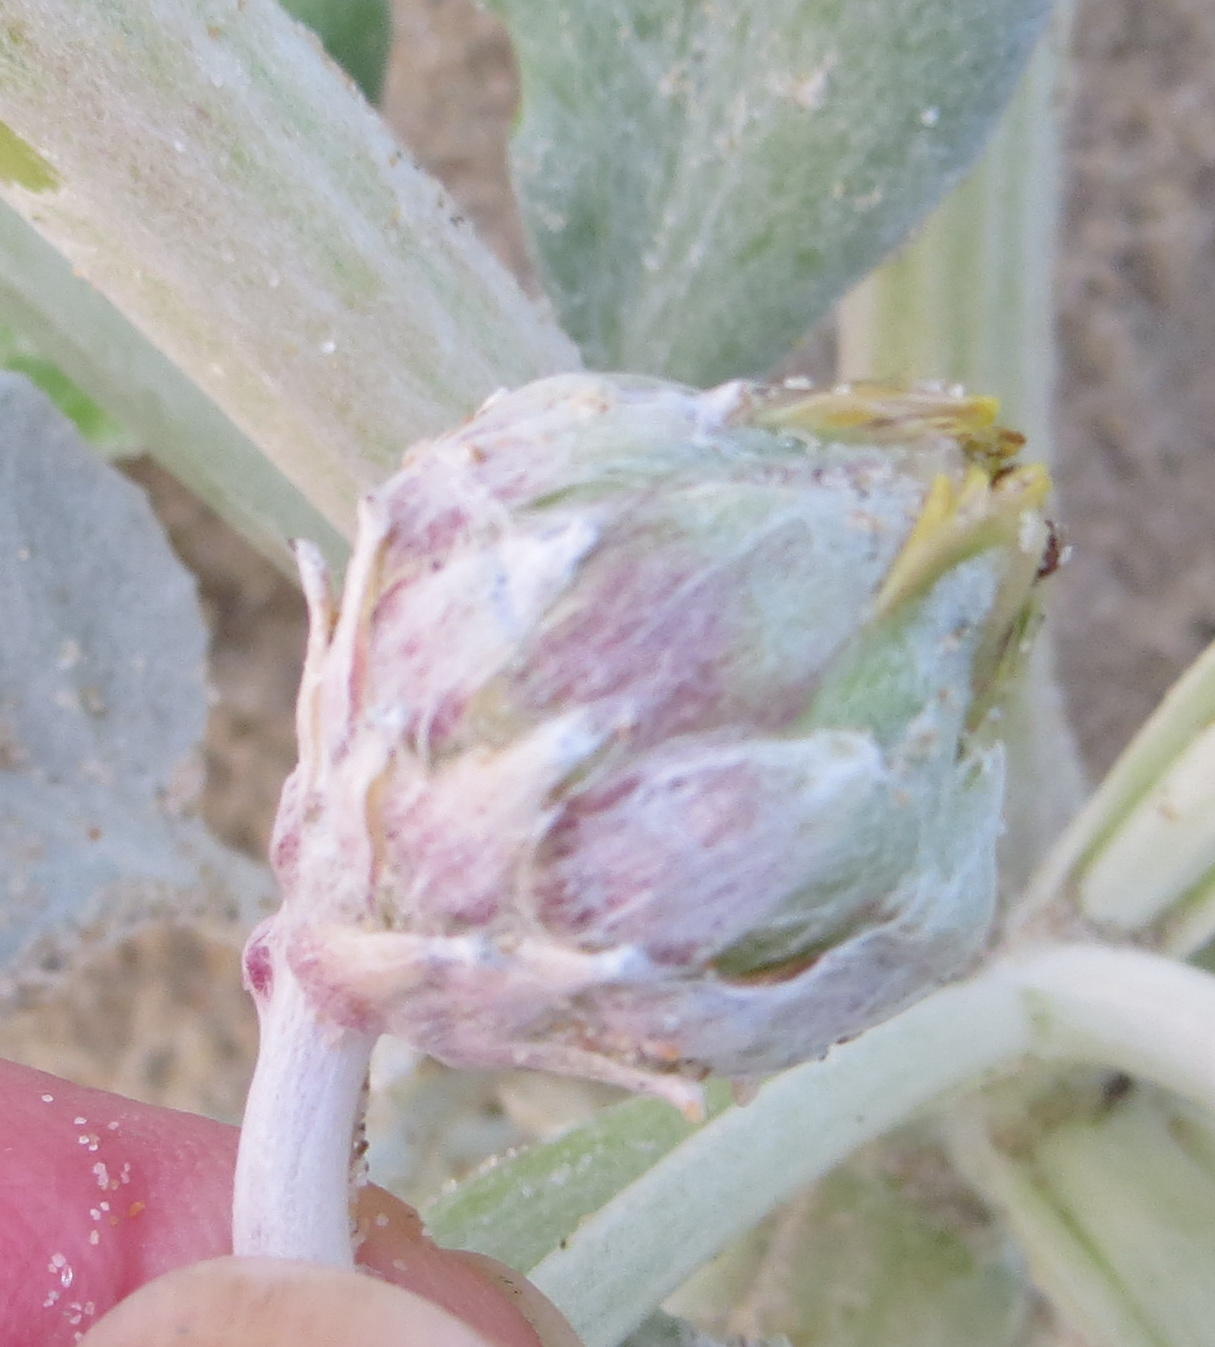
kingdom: Plantae
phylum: Tracheophyta
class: Magnoliopsida
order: Asterales
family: Asteraceae
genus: Arctotheca
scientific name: Arctotheca populifolia
